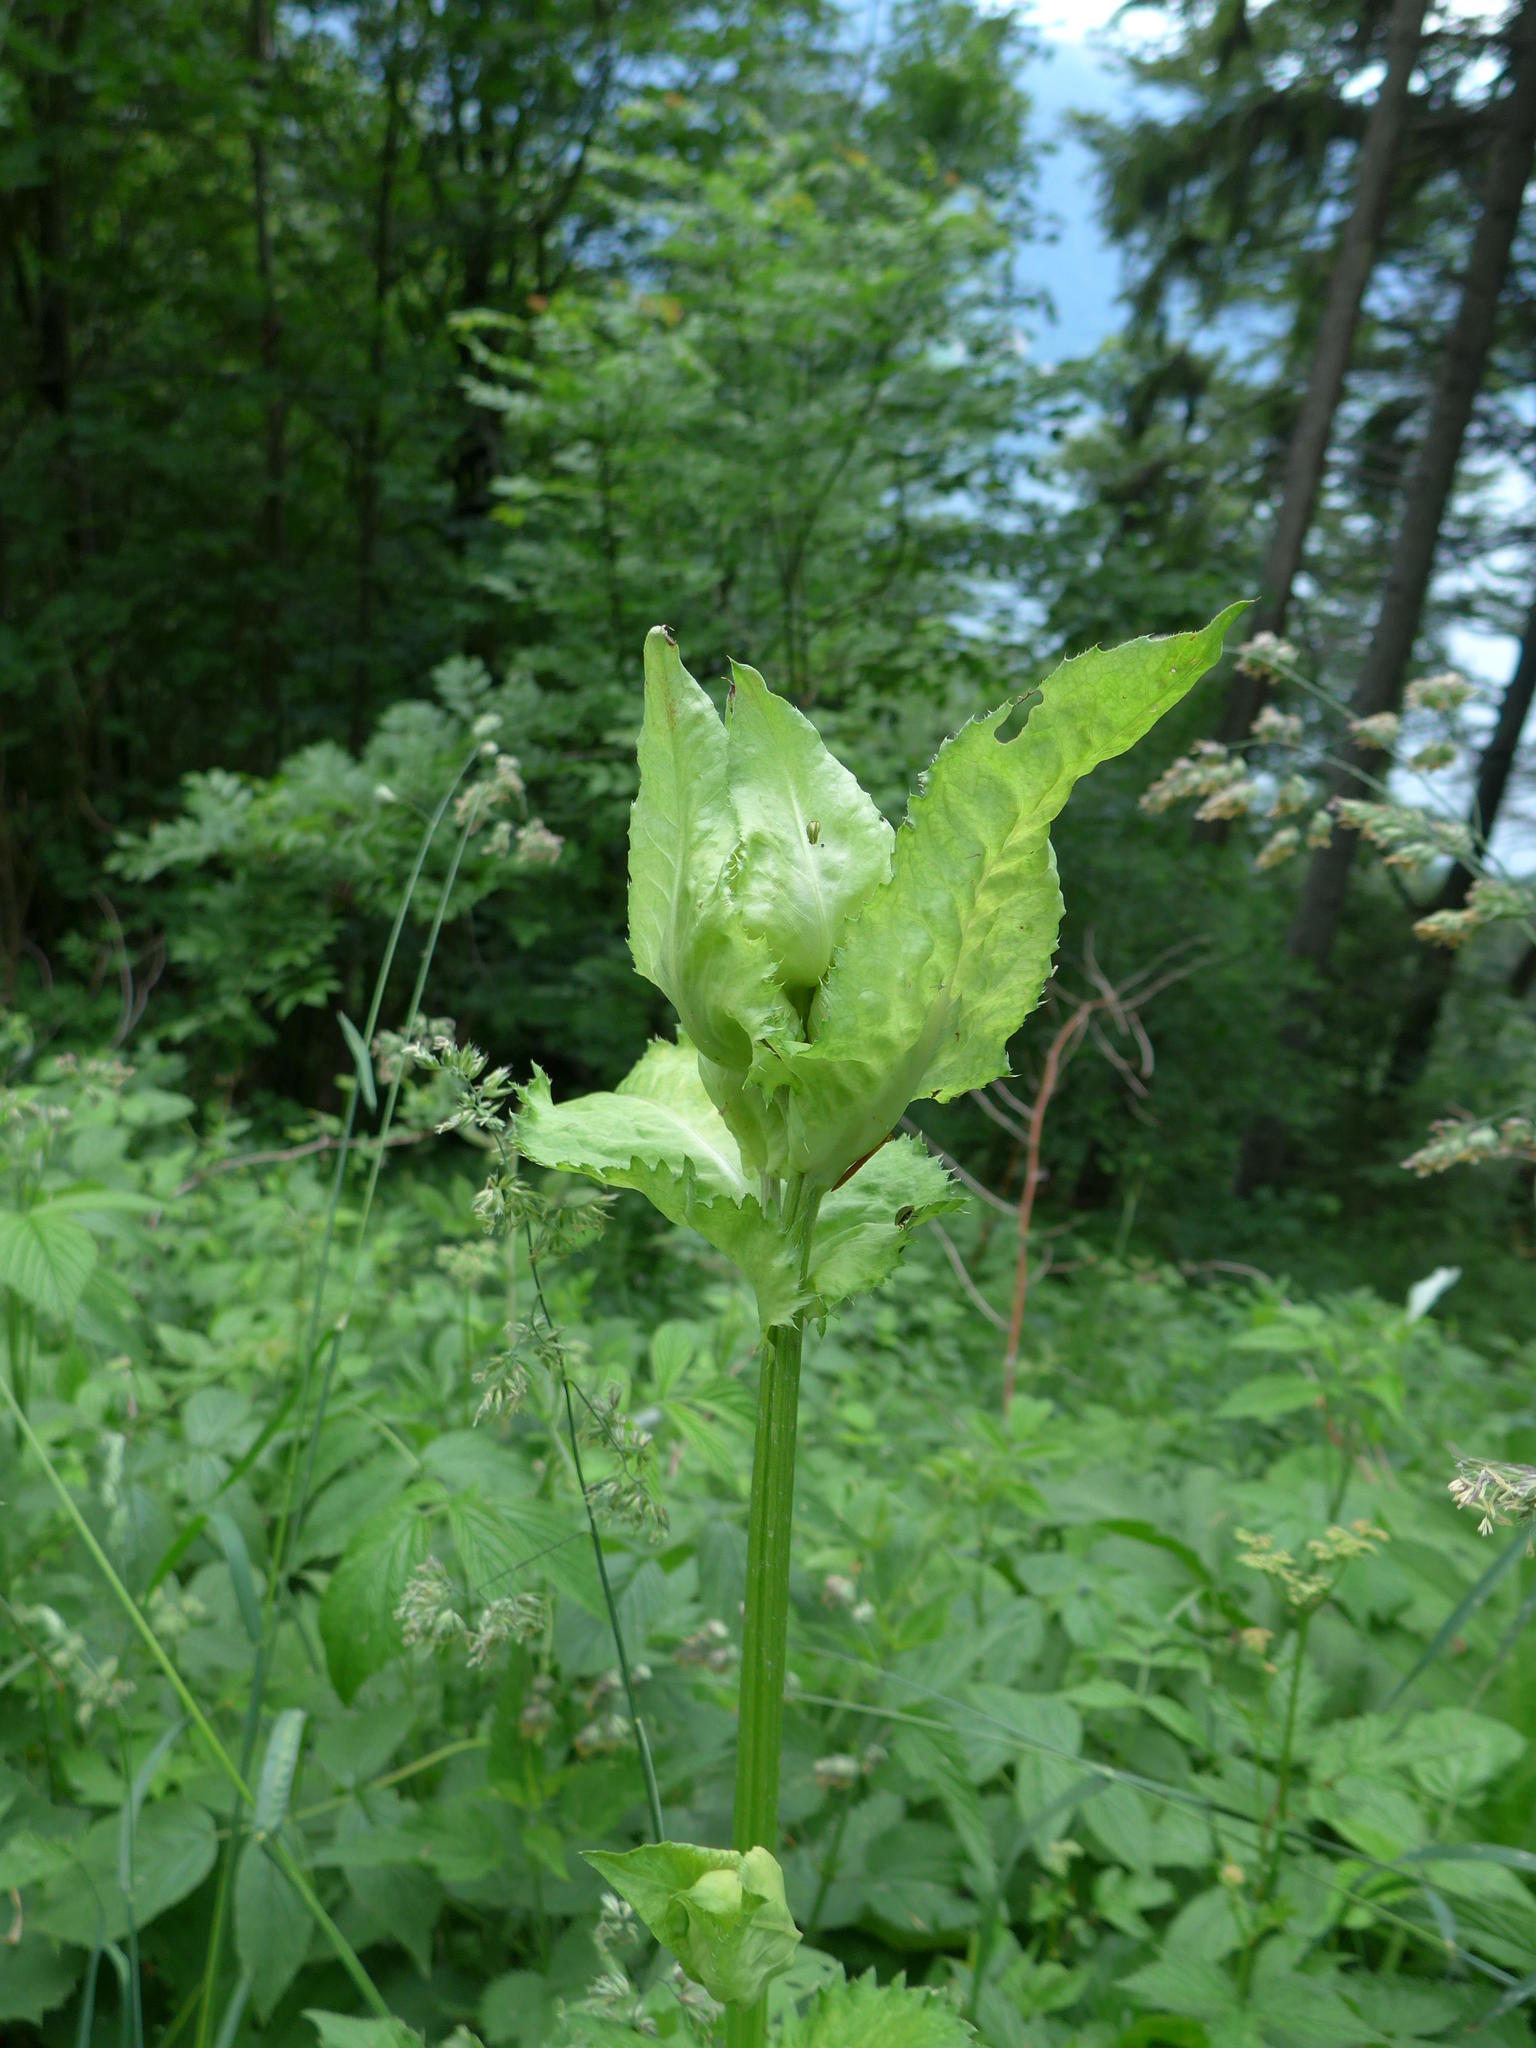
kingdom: Plantae
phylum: Tracheophyta
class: Magnoliopsida
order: Asterales
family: Asteraceae
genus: Cirsium
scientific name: Cirsium oleraceum
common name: Cabbage thistle
